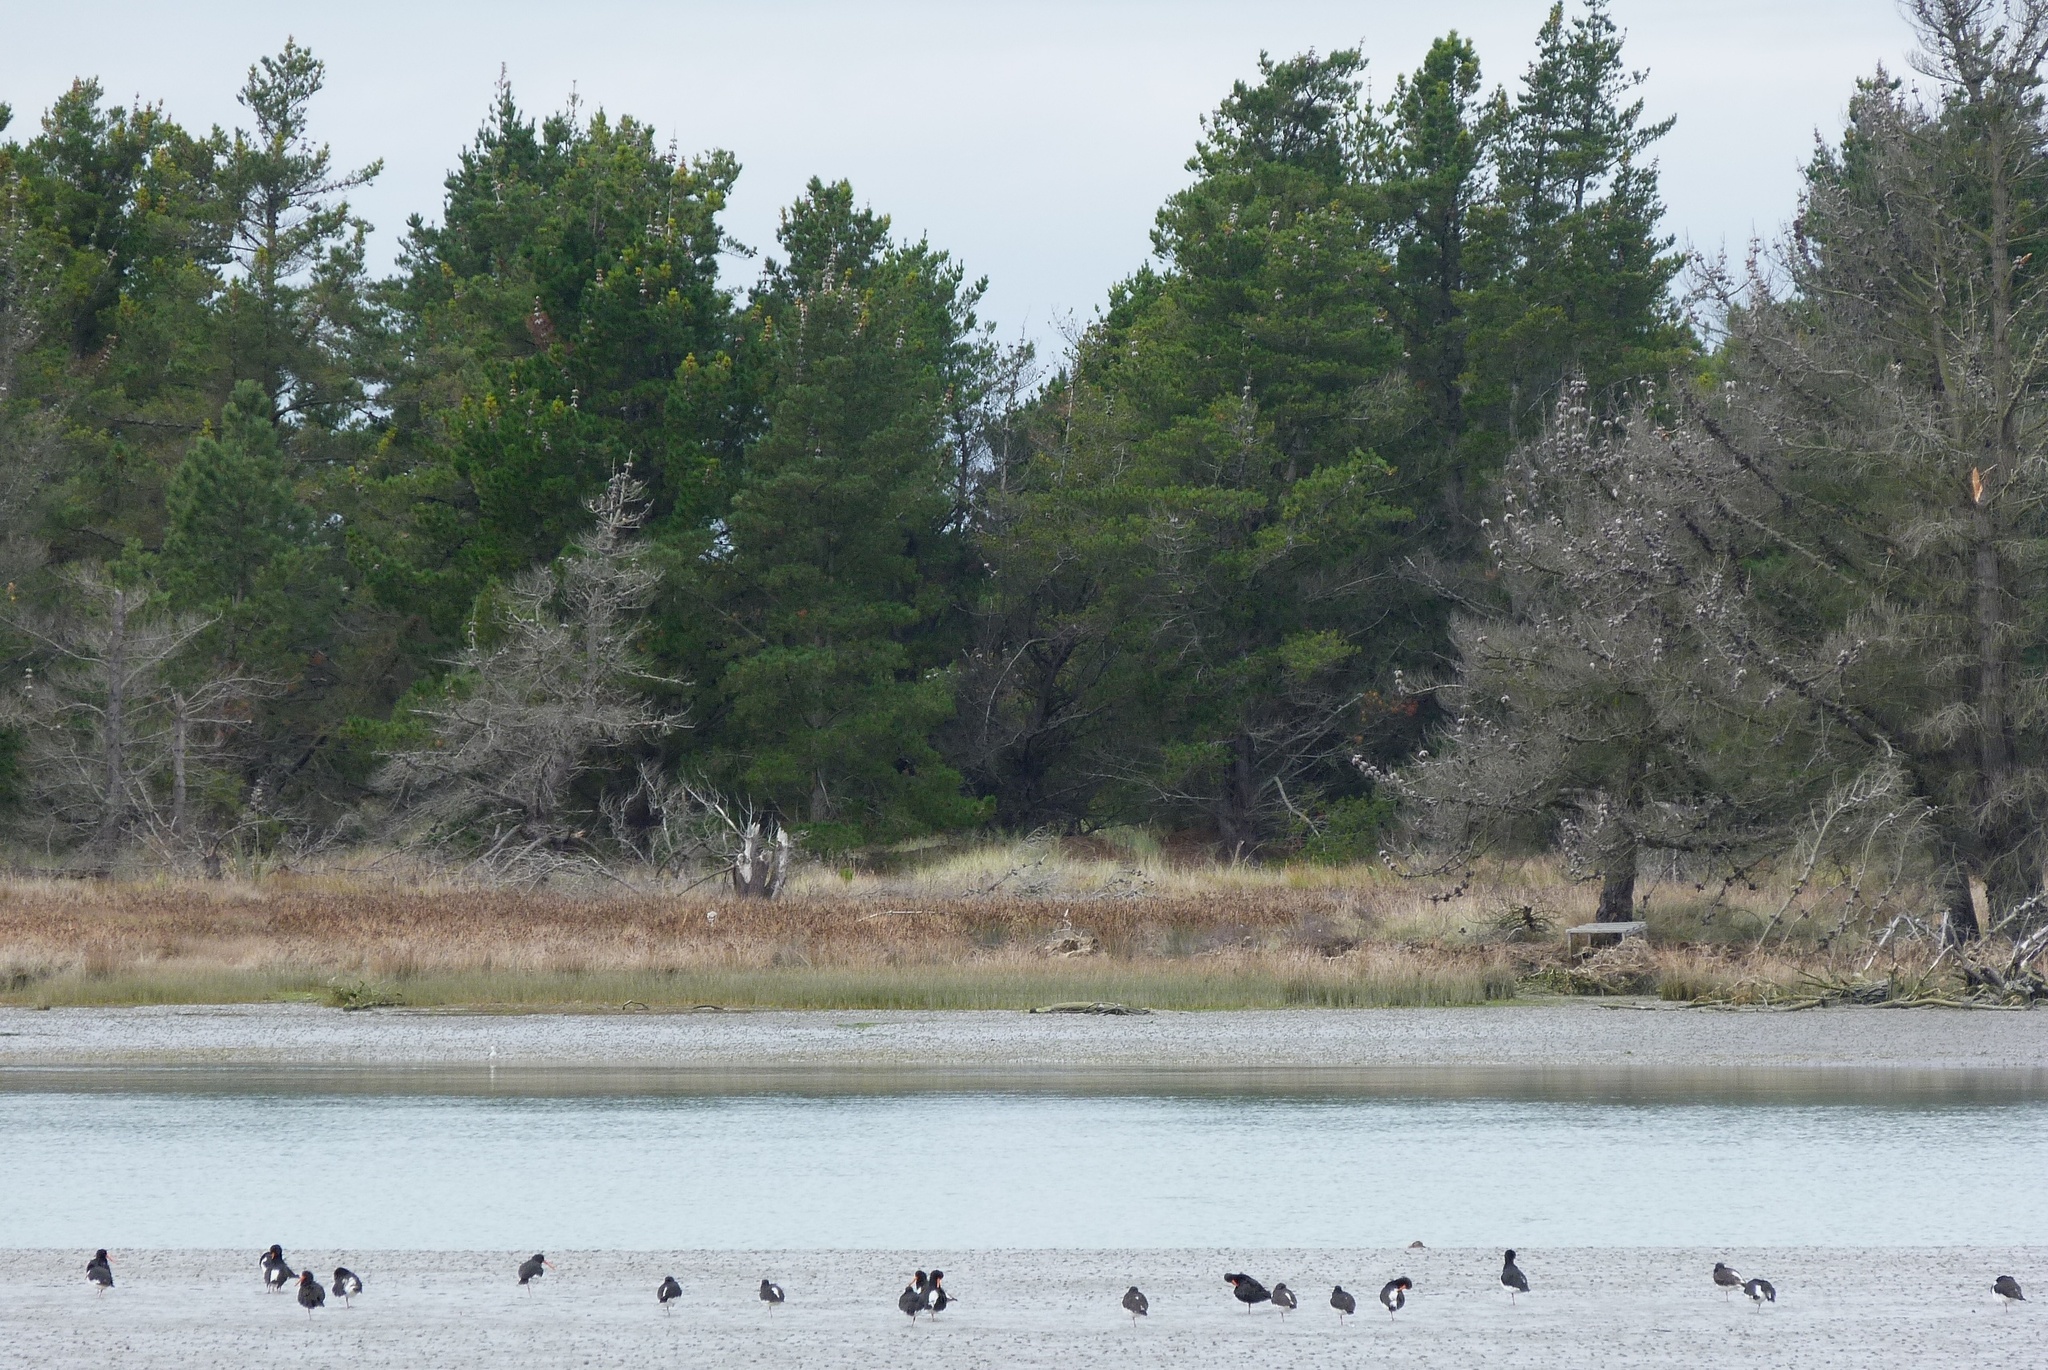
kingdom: Animalia
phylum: Chordata
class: Aves
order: Charadriiformes
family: Haematopodidae
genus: Haematopus
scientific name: Haematopus finschi
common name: South island oystercatcher
